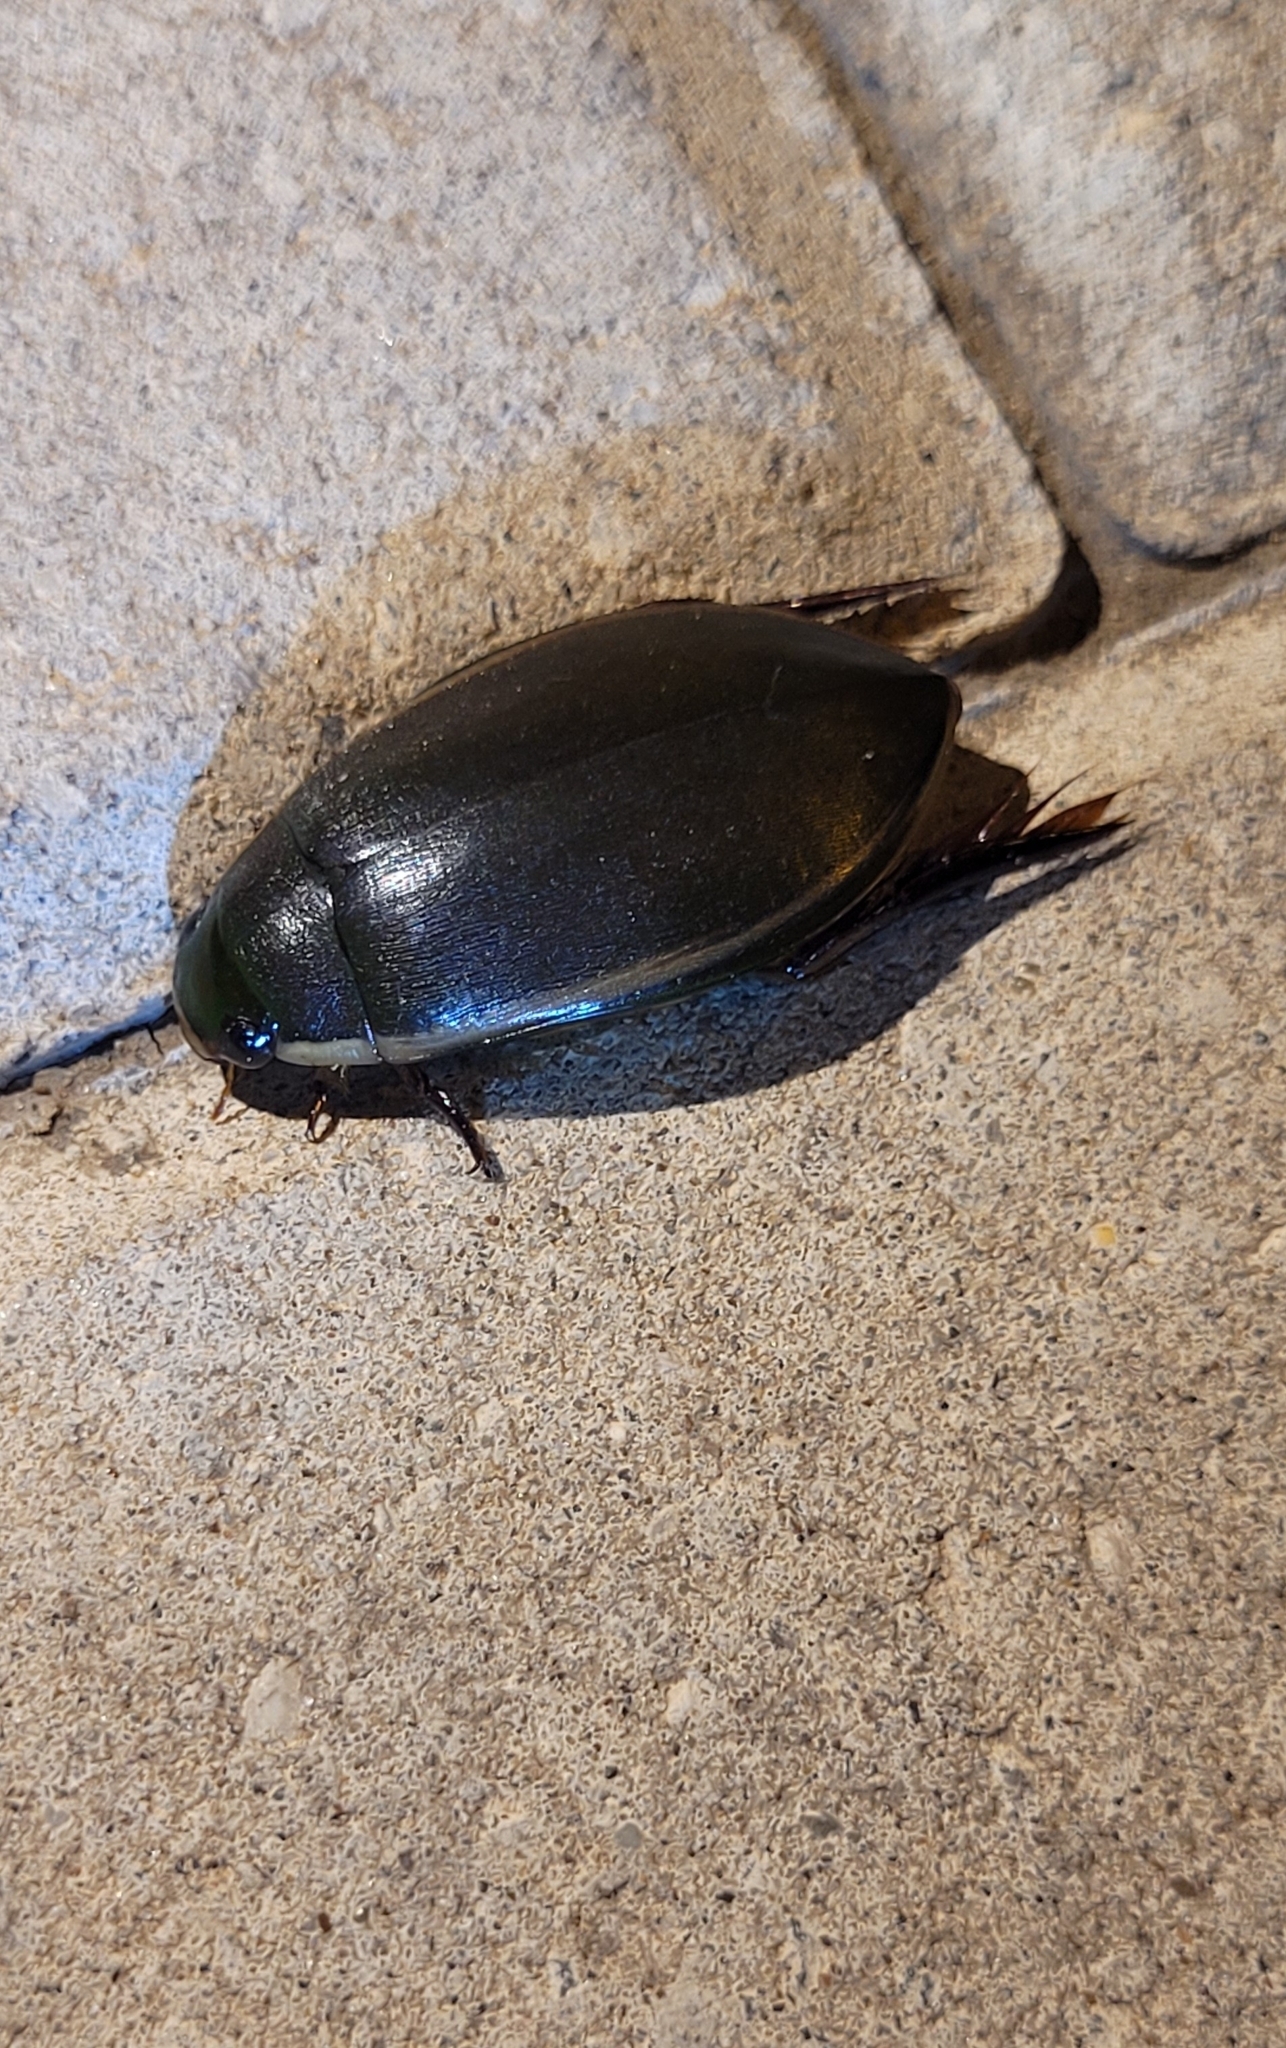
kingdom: Animalia
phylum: Arthropoda
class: Insecta
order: Coleoptera
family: Dytiscidae
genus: Cybister
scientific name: Cybister lateralimarginalis
